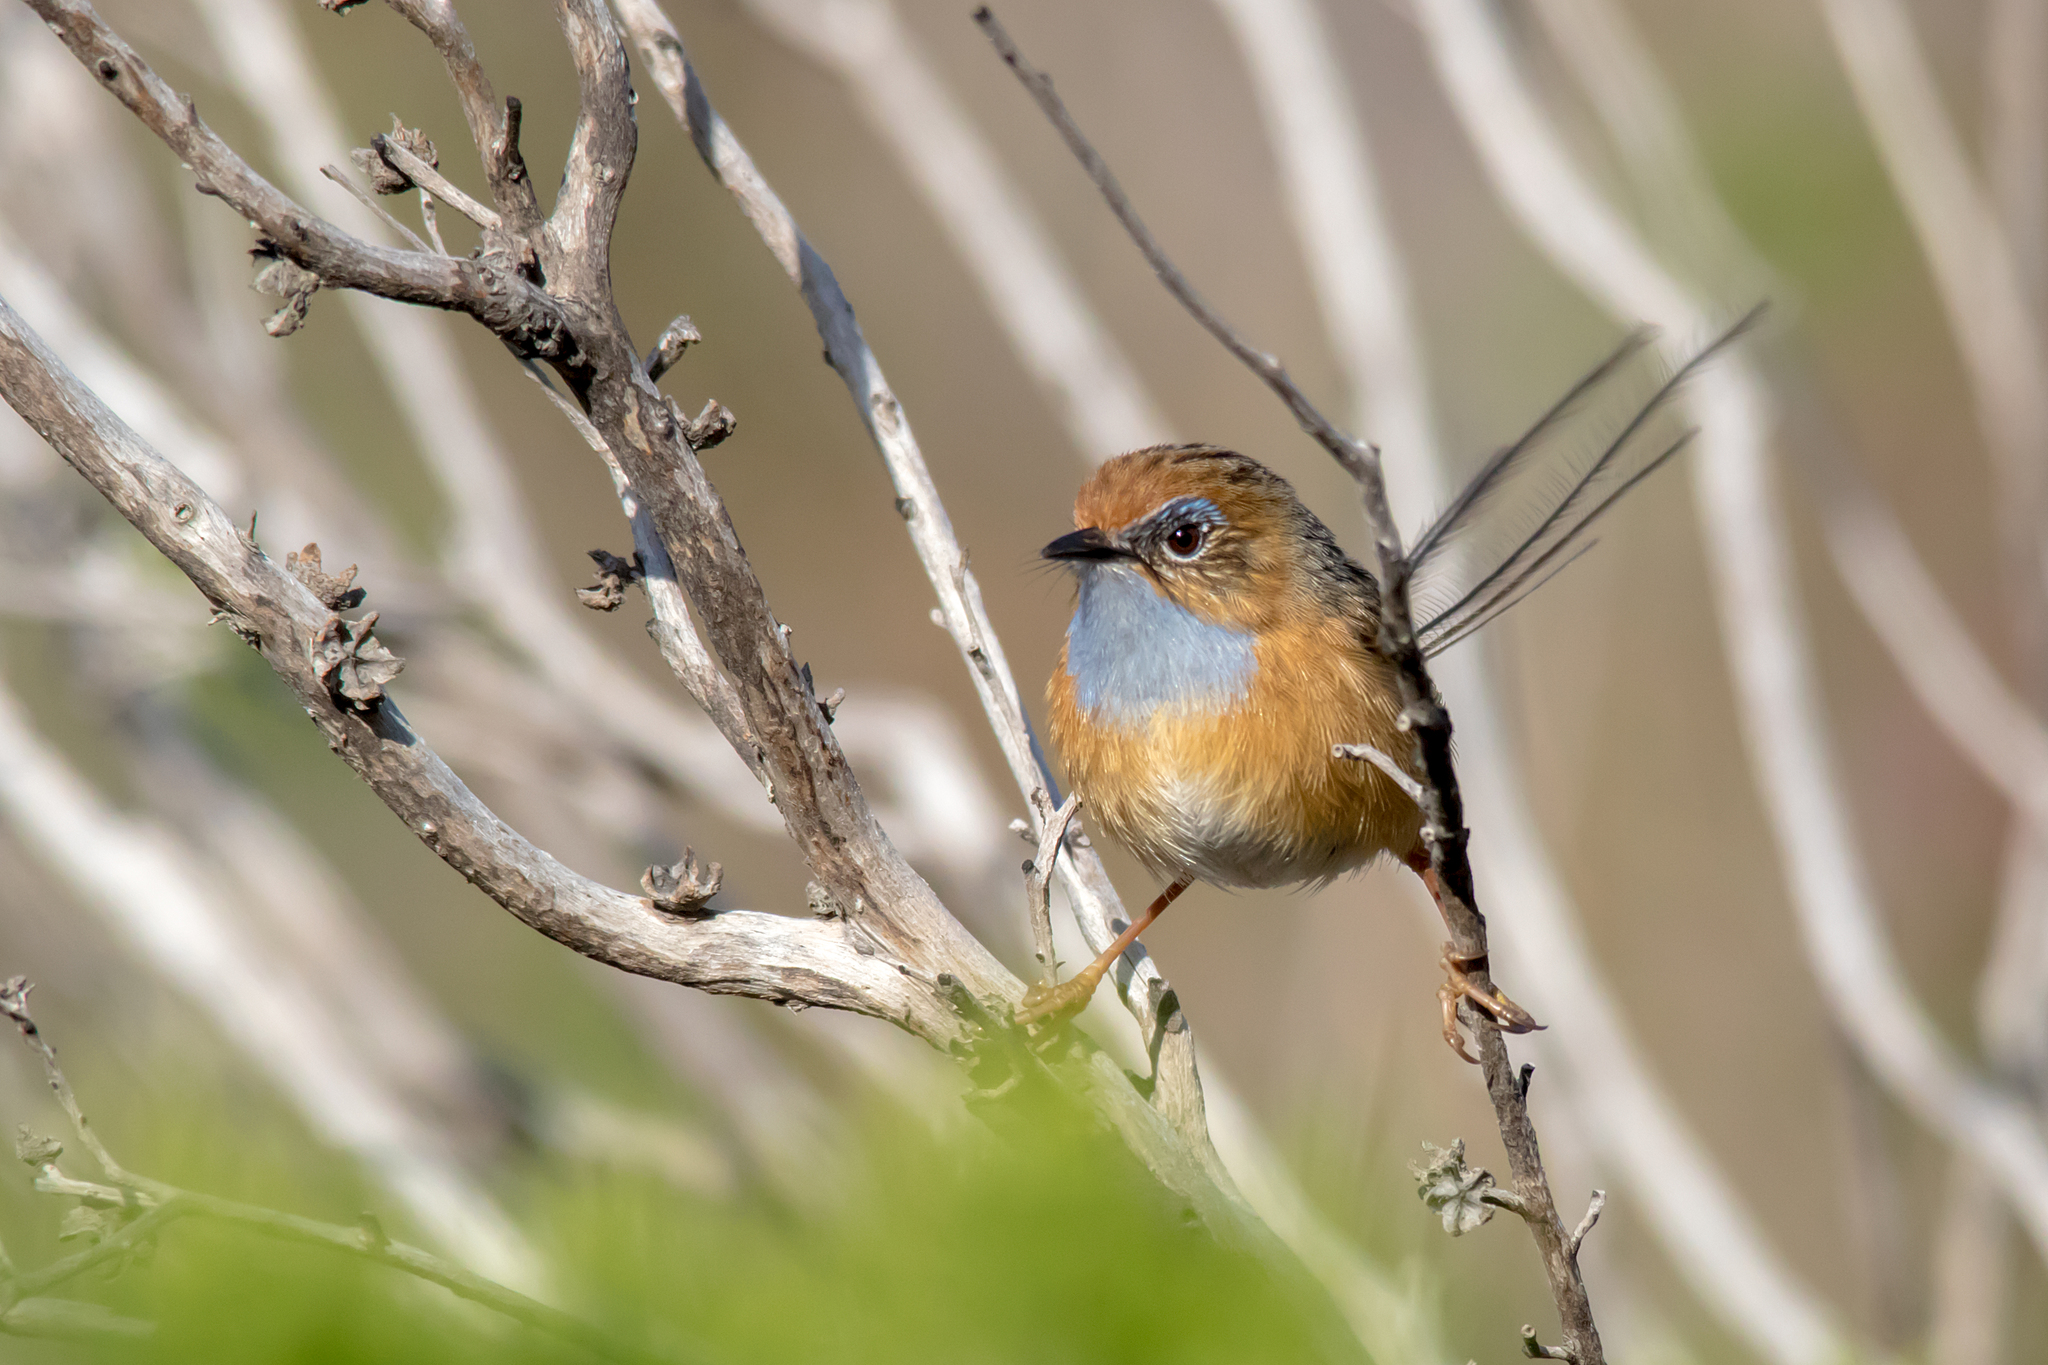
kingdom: Animalia
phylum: Chordata
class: Aves
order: Passeriformes
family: Maluridae
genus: Stipiturus
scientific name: Stipiturus malachurus
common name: Southern emu-wren
